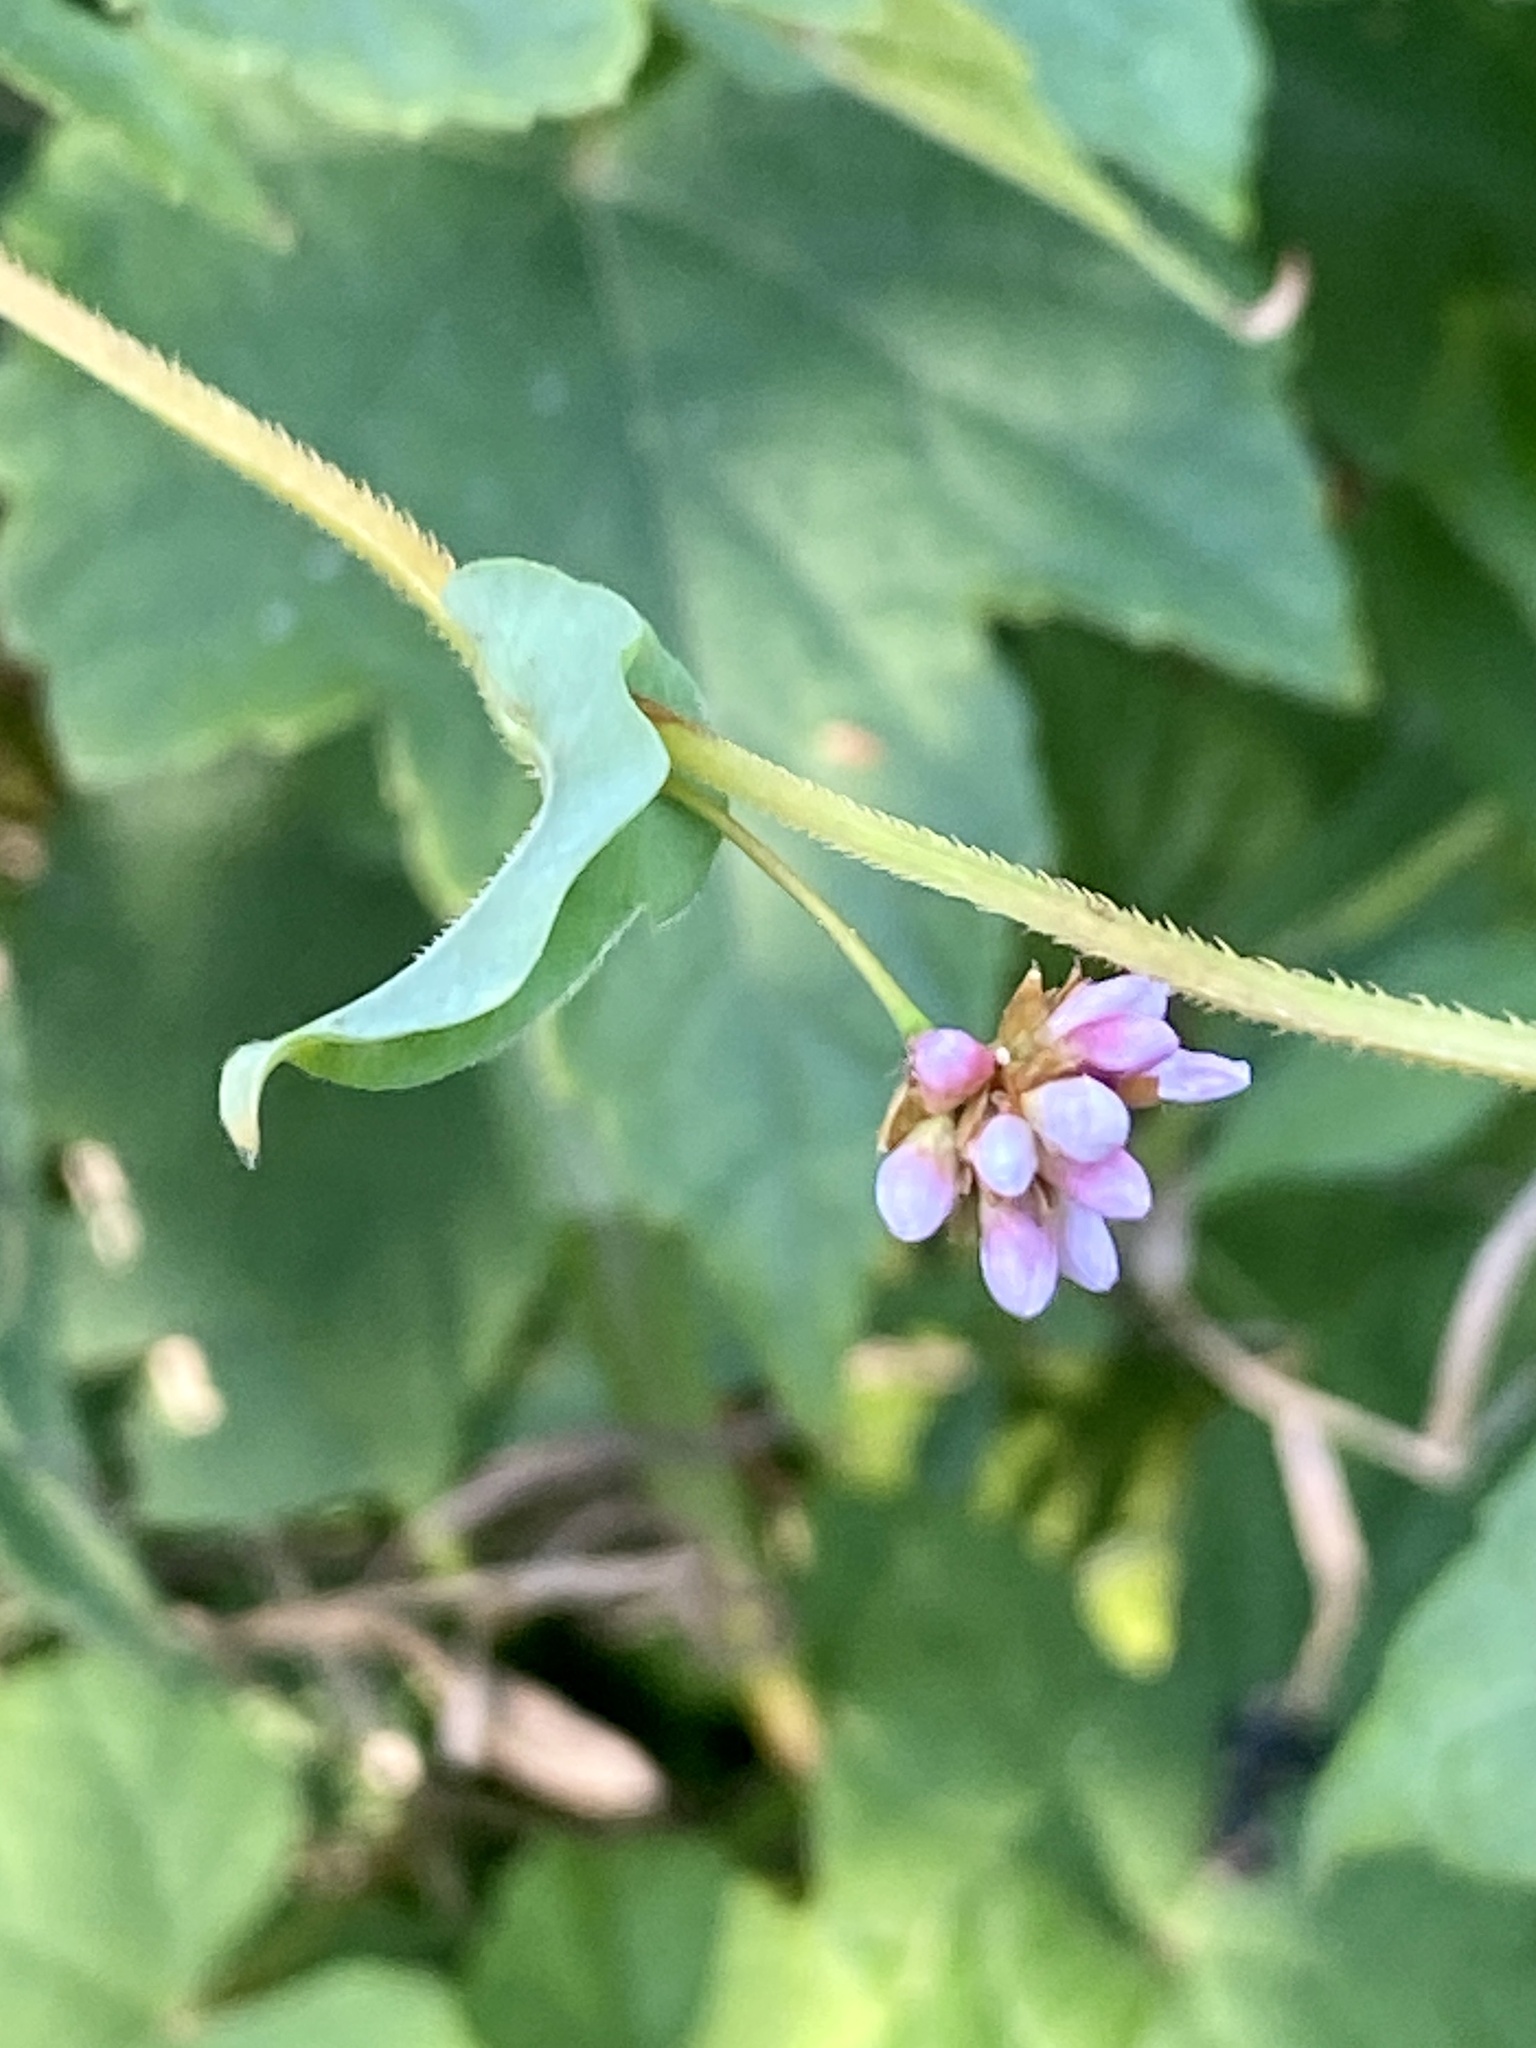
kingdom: Plantae
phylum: Tracheophyta
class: Magnoliopsida
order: Caryophyllales
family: Polygonaceae
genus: Persicaria
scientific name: Persicaria sagittata
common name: American tearthumb
